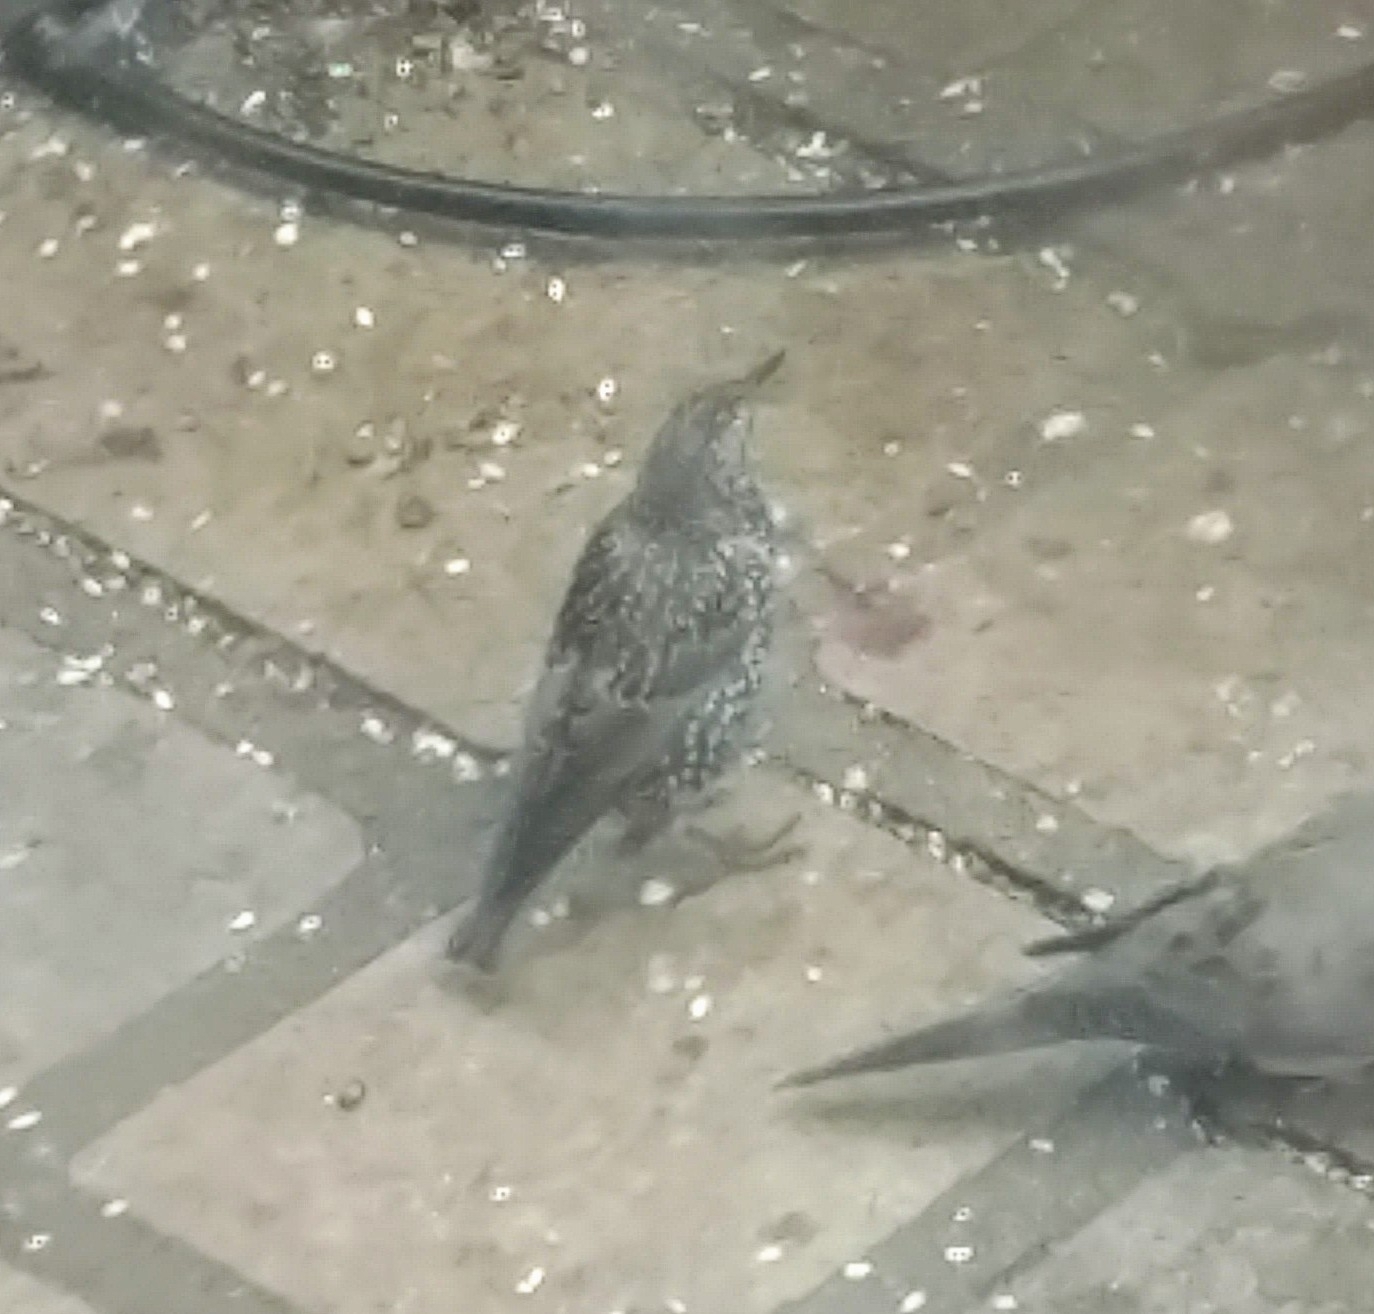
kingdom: Animalia
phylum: Chordata
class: Aves
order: Passeriformes
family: Sturnidae
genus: Sturnus
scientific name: Sturnus vulgaris
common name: Common starling
